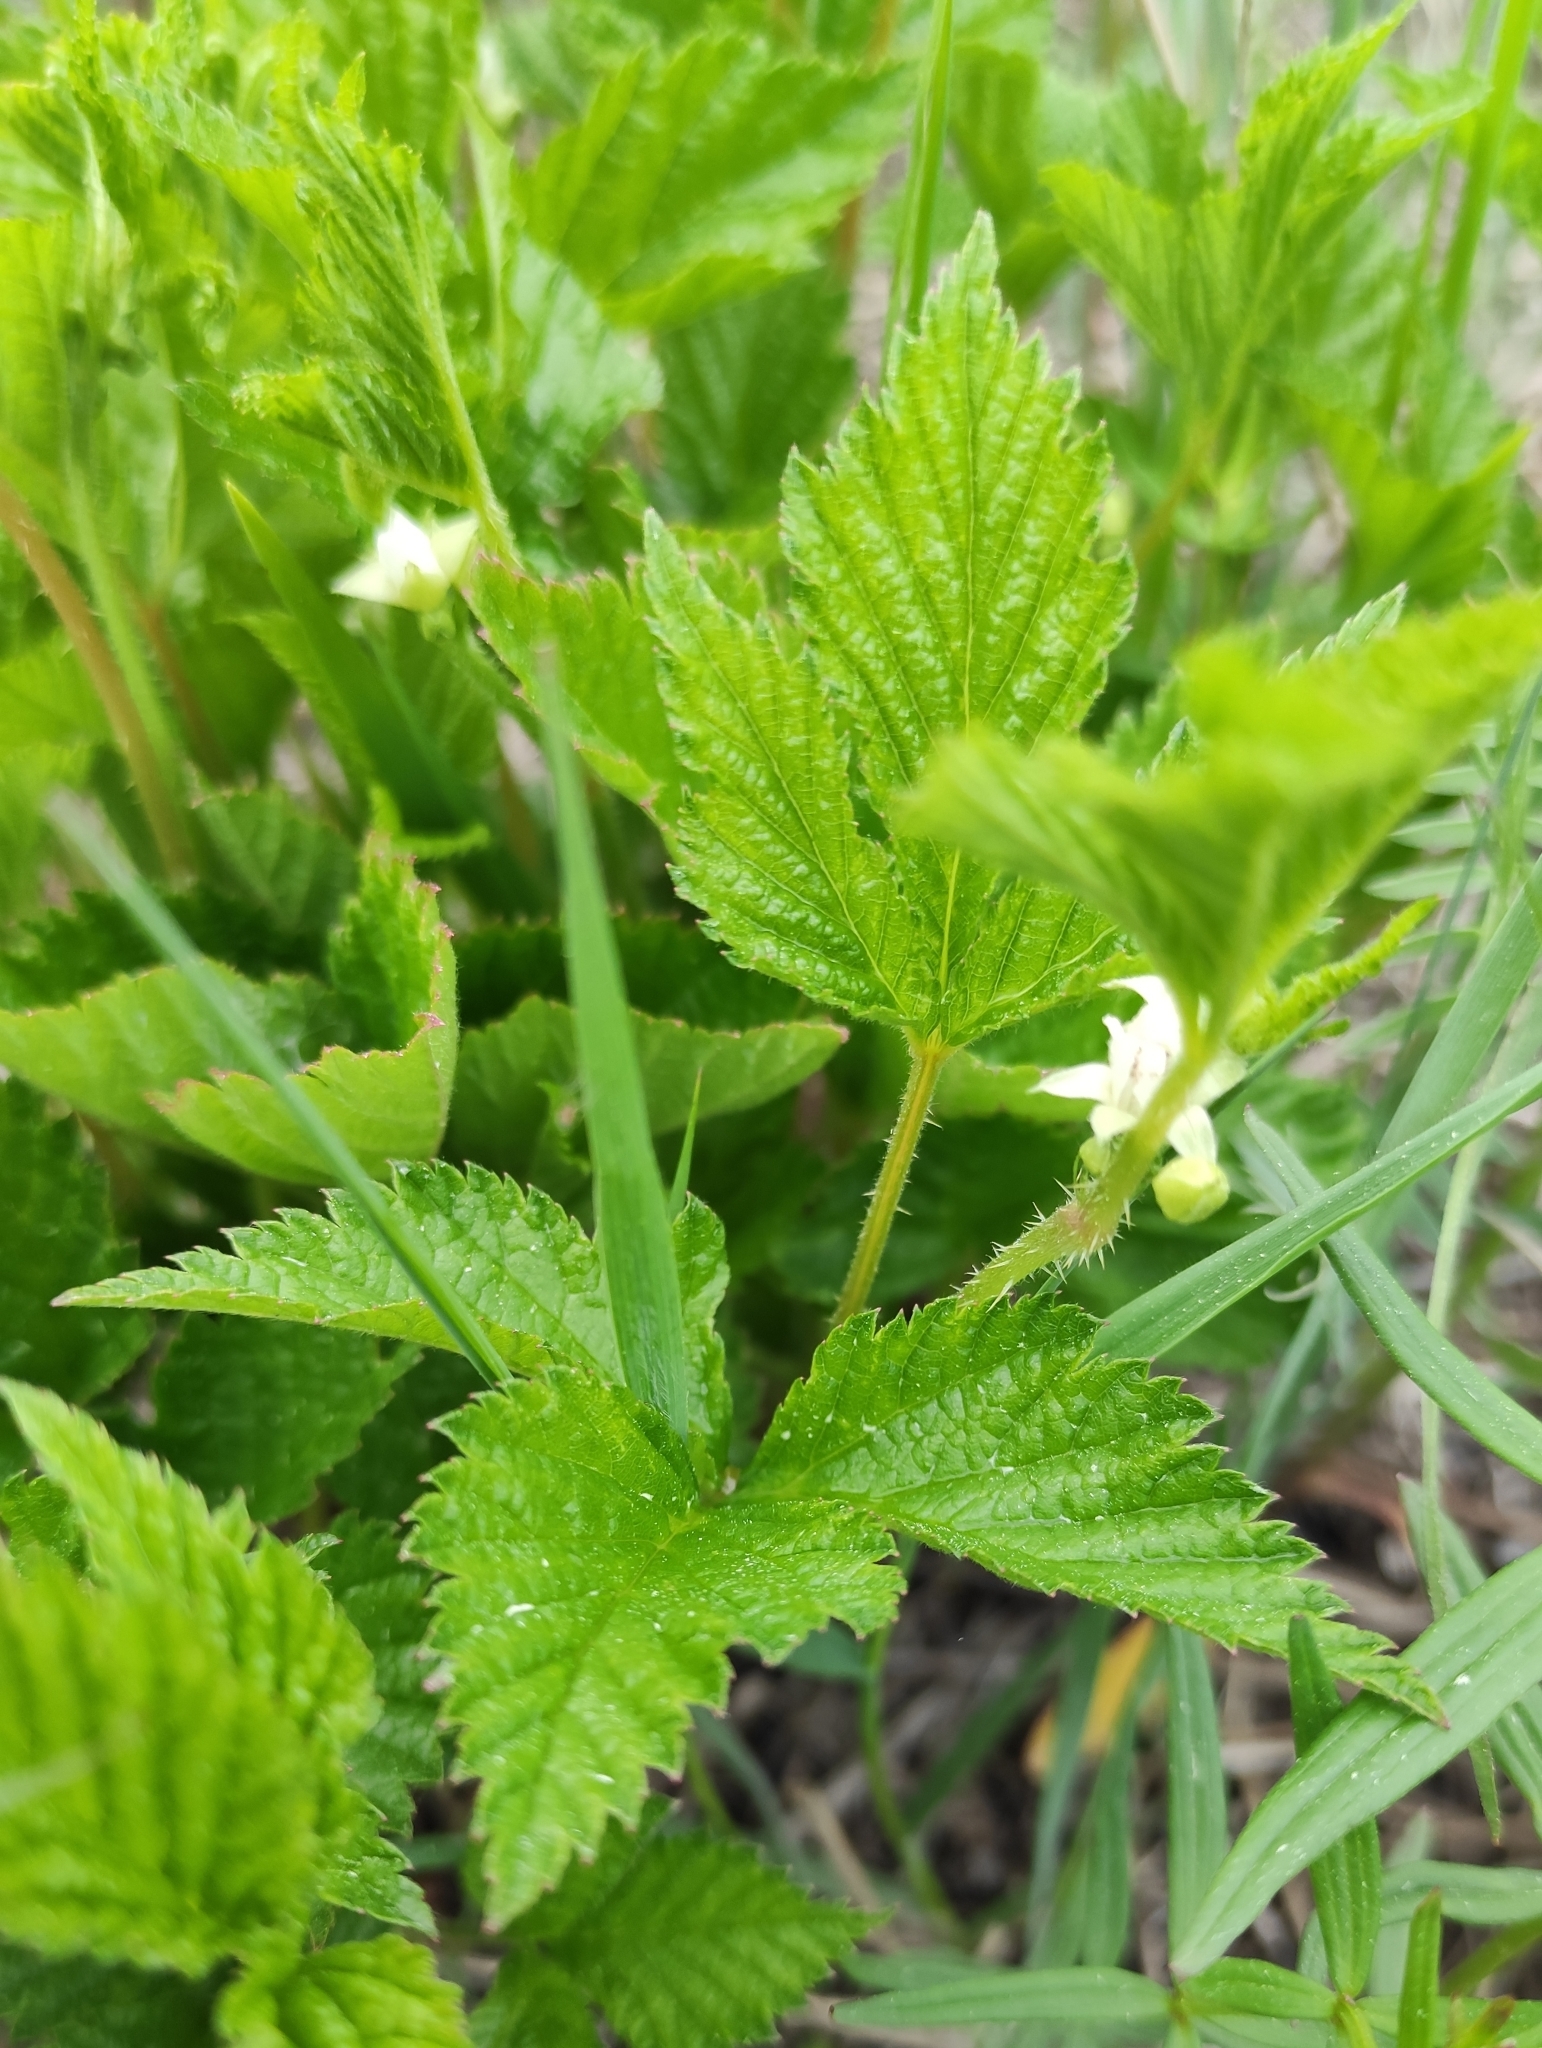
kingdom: Plantae
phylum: Tracheophyta
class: Magnoliopsida
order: Rosales
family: Rosaceae
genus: Rubus
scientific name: Rubus saxatilis
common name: Stone bramble
